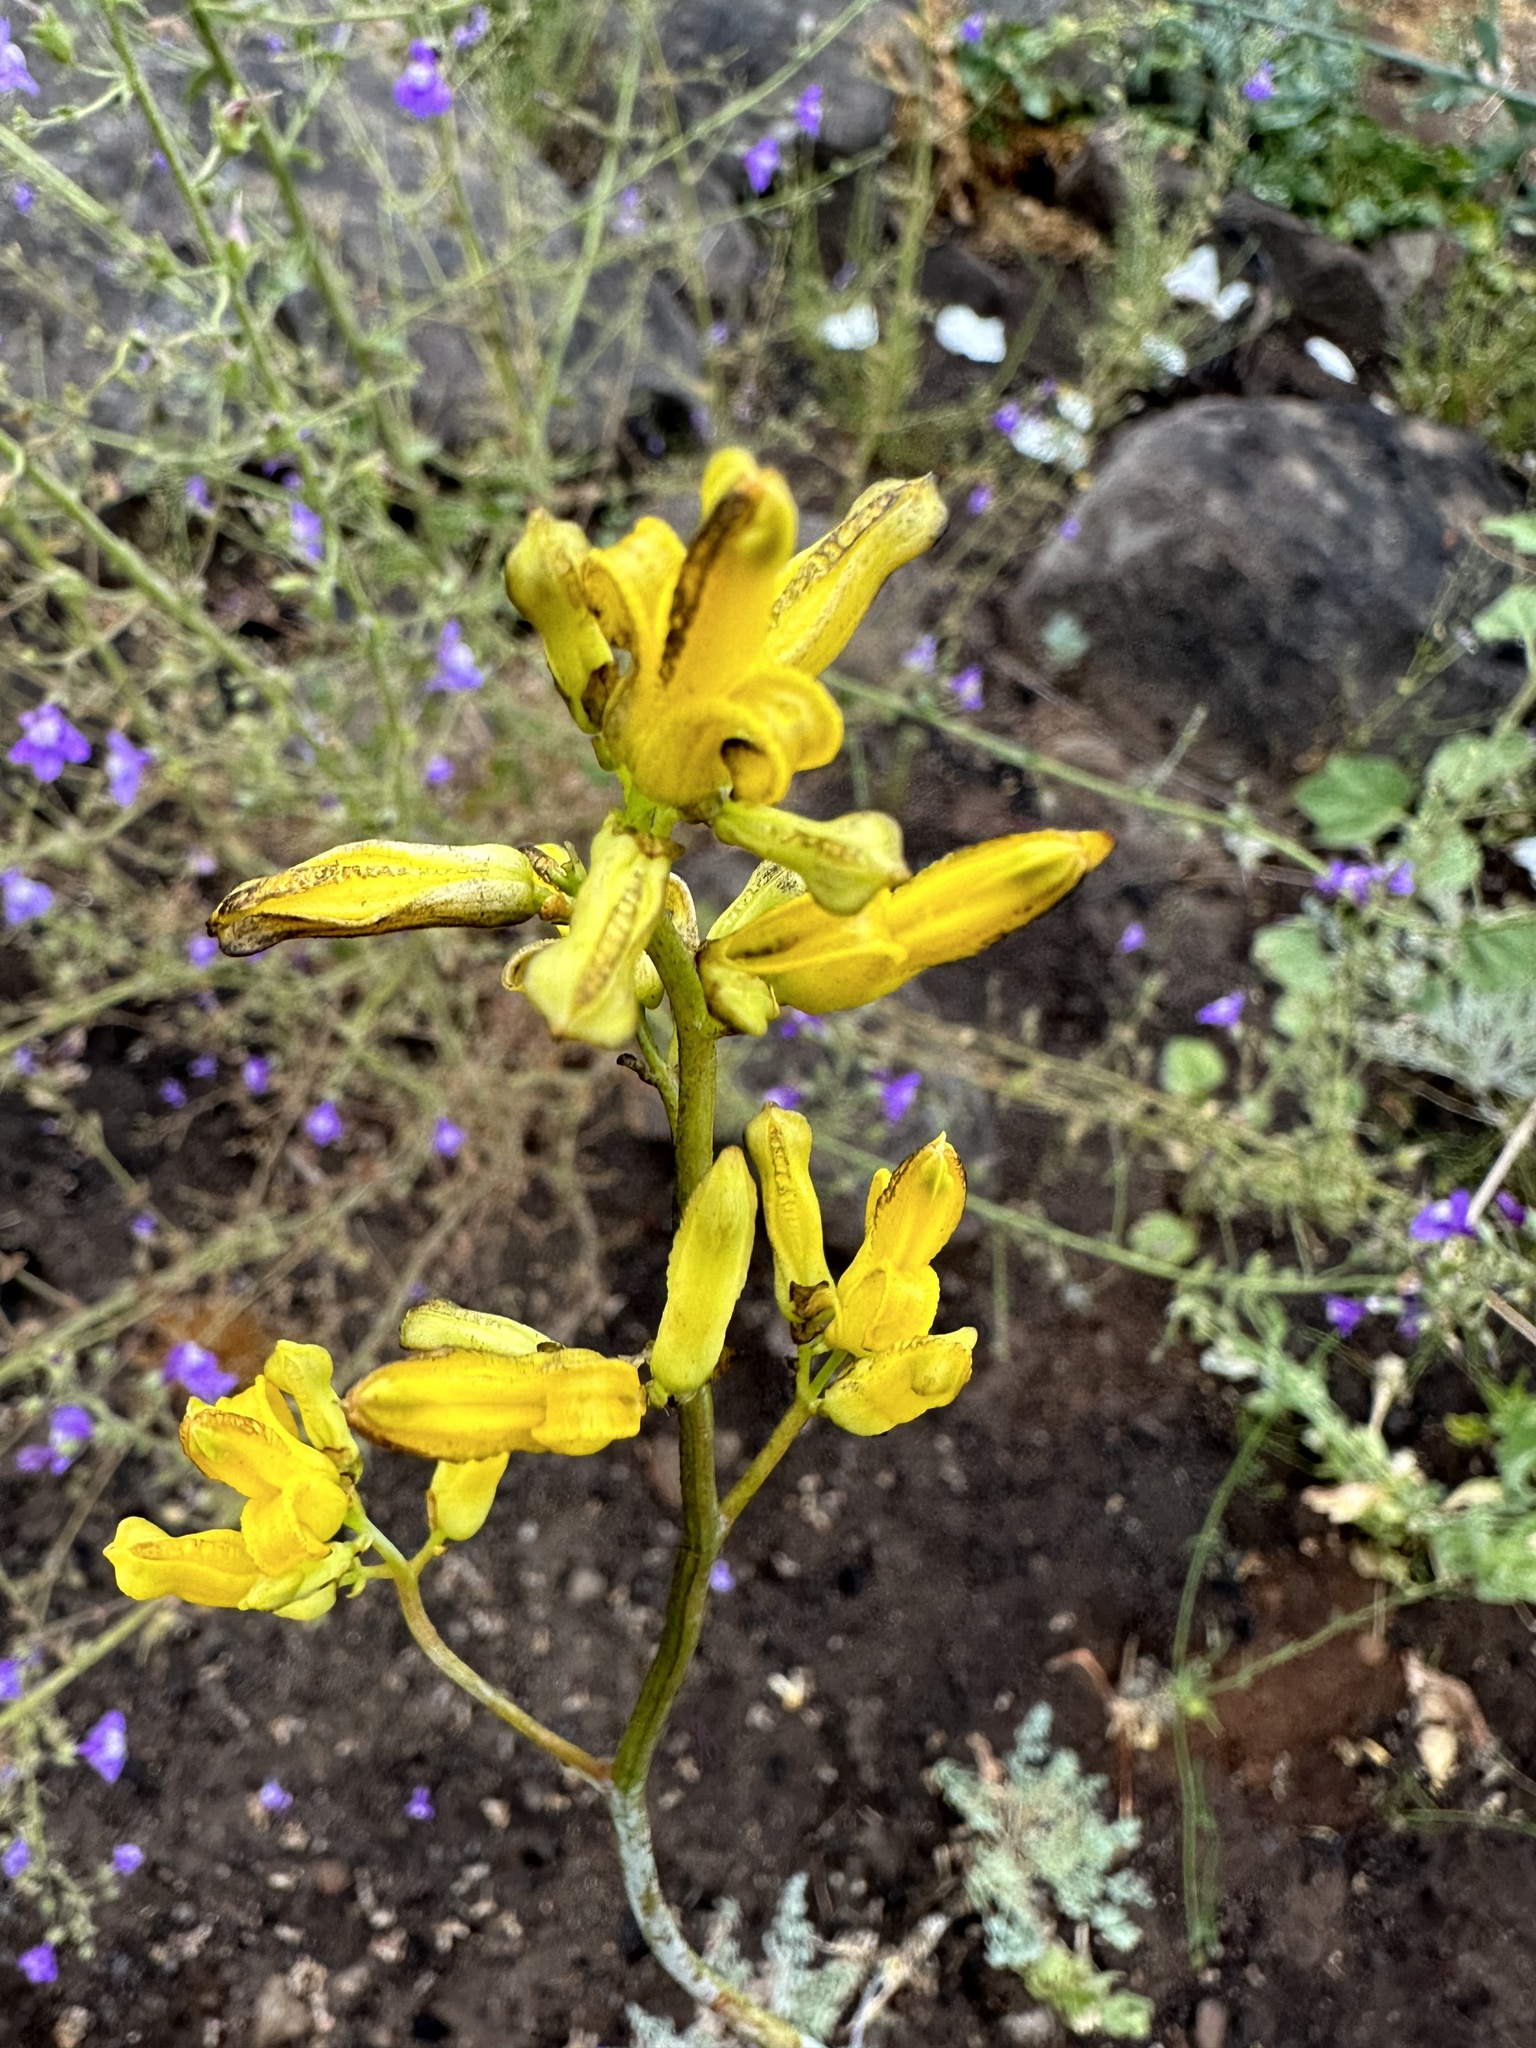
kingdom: Plantae
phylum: Tracheophyta
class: Magnoliopsida
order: Ranunculales
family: Papaveraceae
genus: Ehrendorferia
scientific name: Ehrendorferia chrysantha
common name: Golden eardrops
